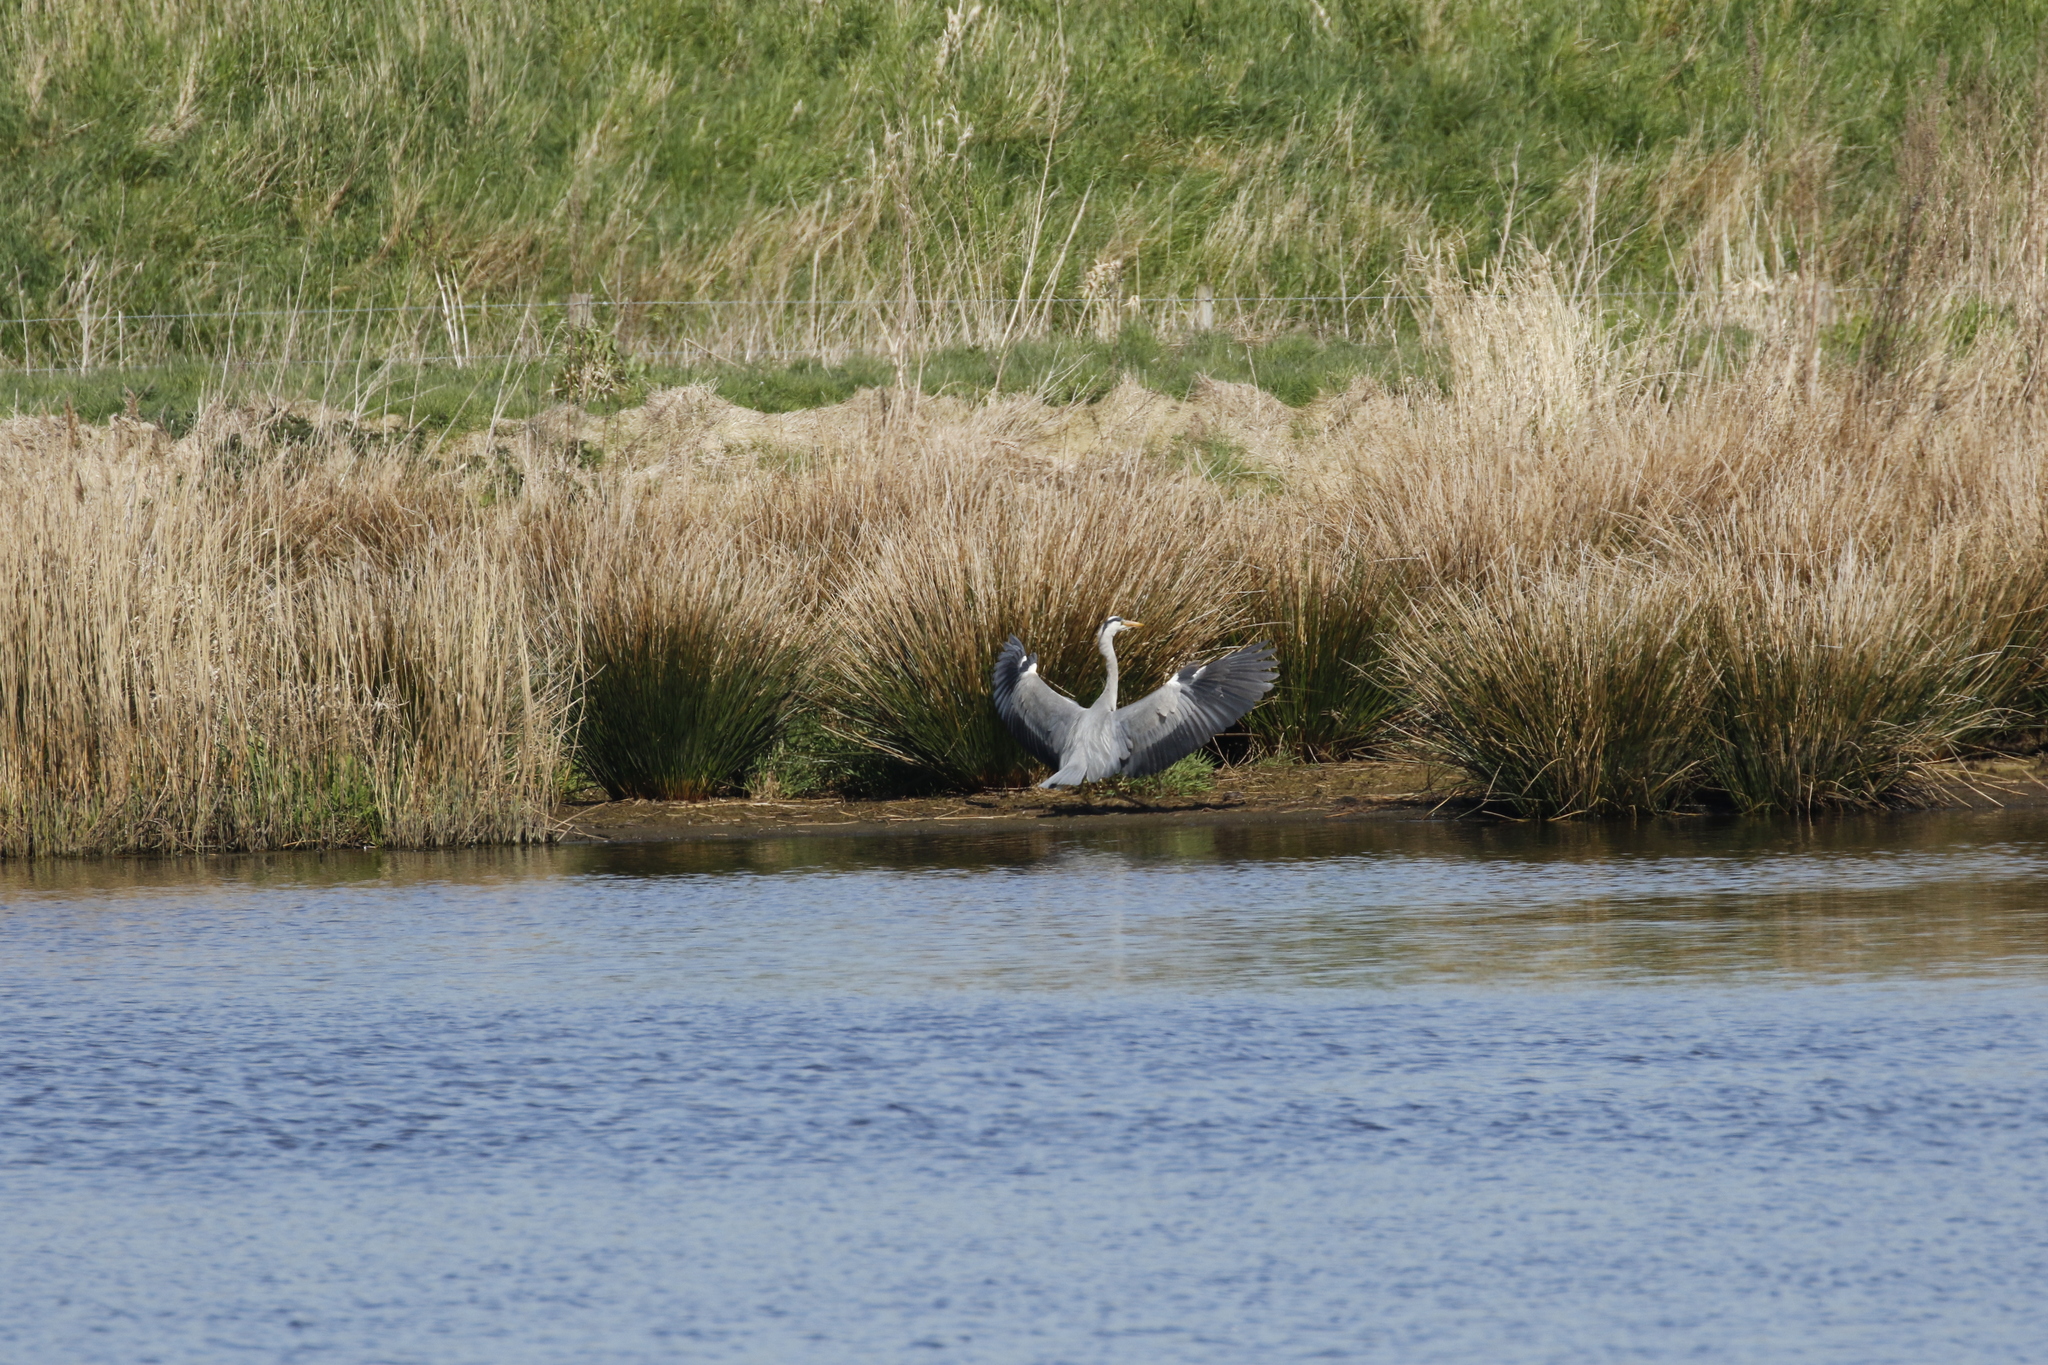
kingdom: Animalia
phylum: Chordata
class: Aves
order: Pelecaniformes
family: Ardeidae
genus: Ardea
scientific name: Ardea cinerea
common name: Grey heron
